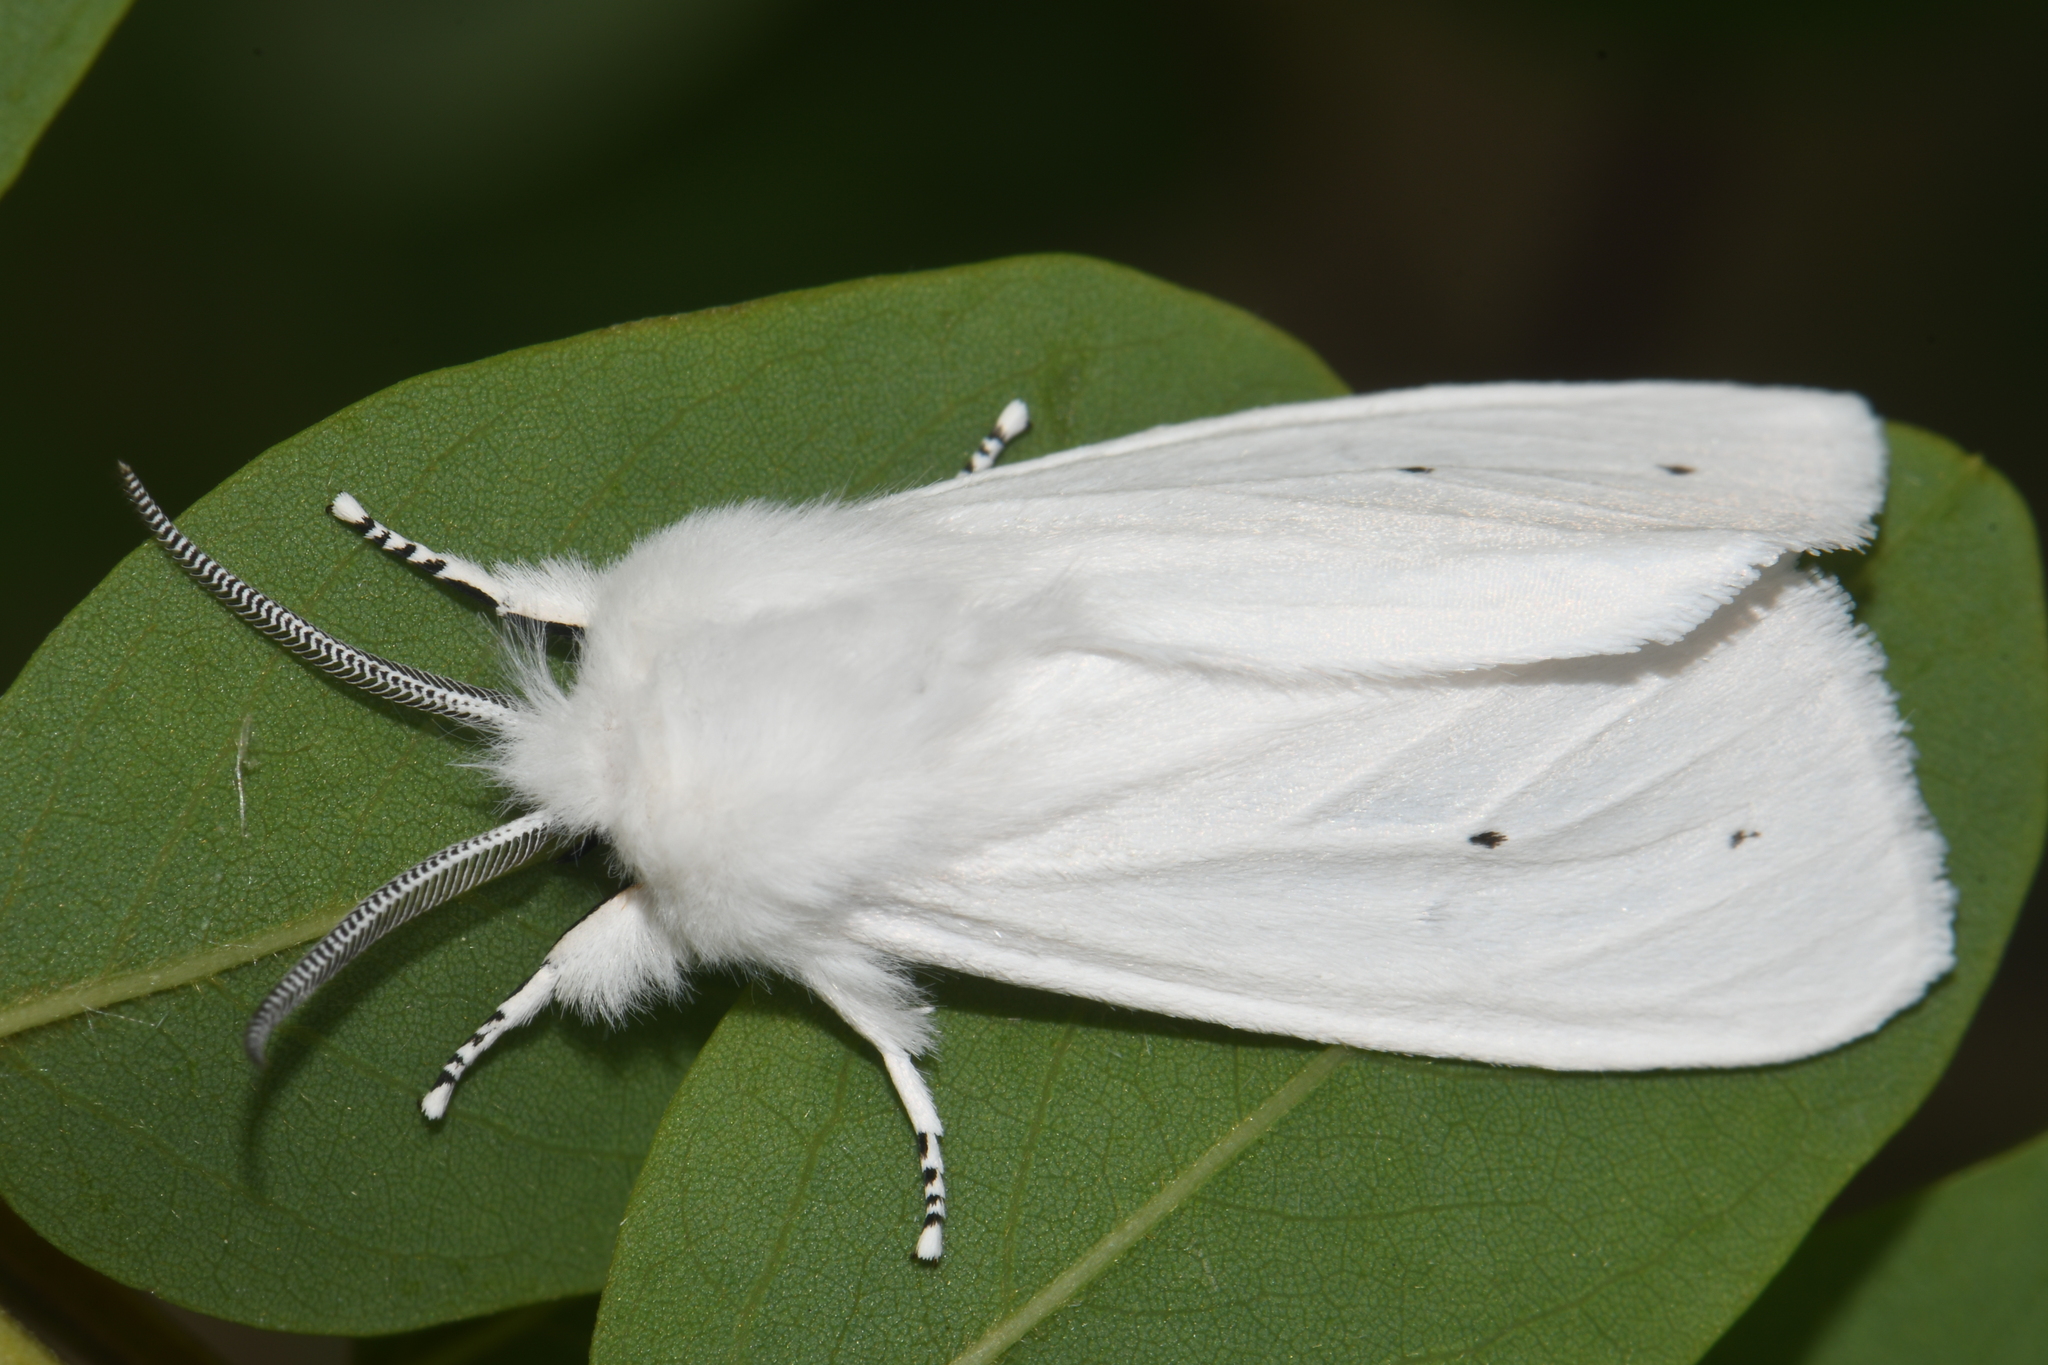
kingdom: Animalia
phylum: Arthropoda
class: Insecta
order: Lepidoptera
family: Erebidae
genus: Spilosoma
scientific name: Spilosoma virginica
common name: Virginia tiger moth
